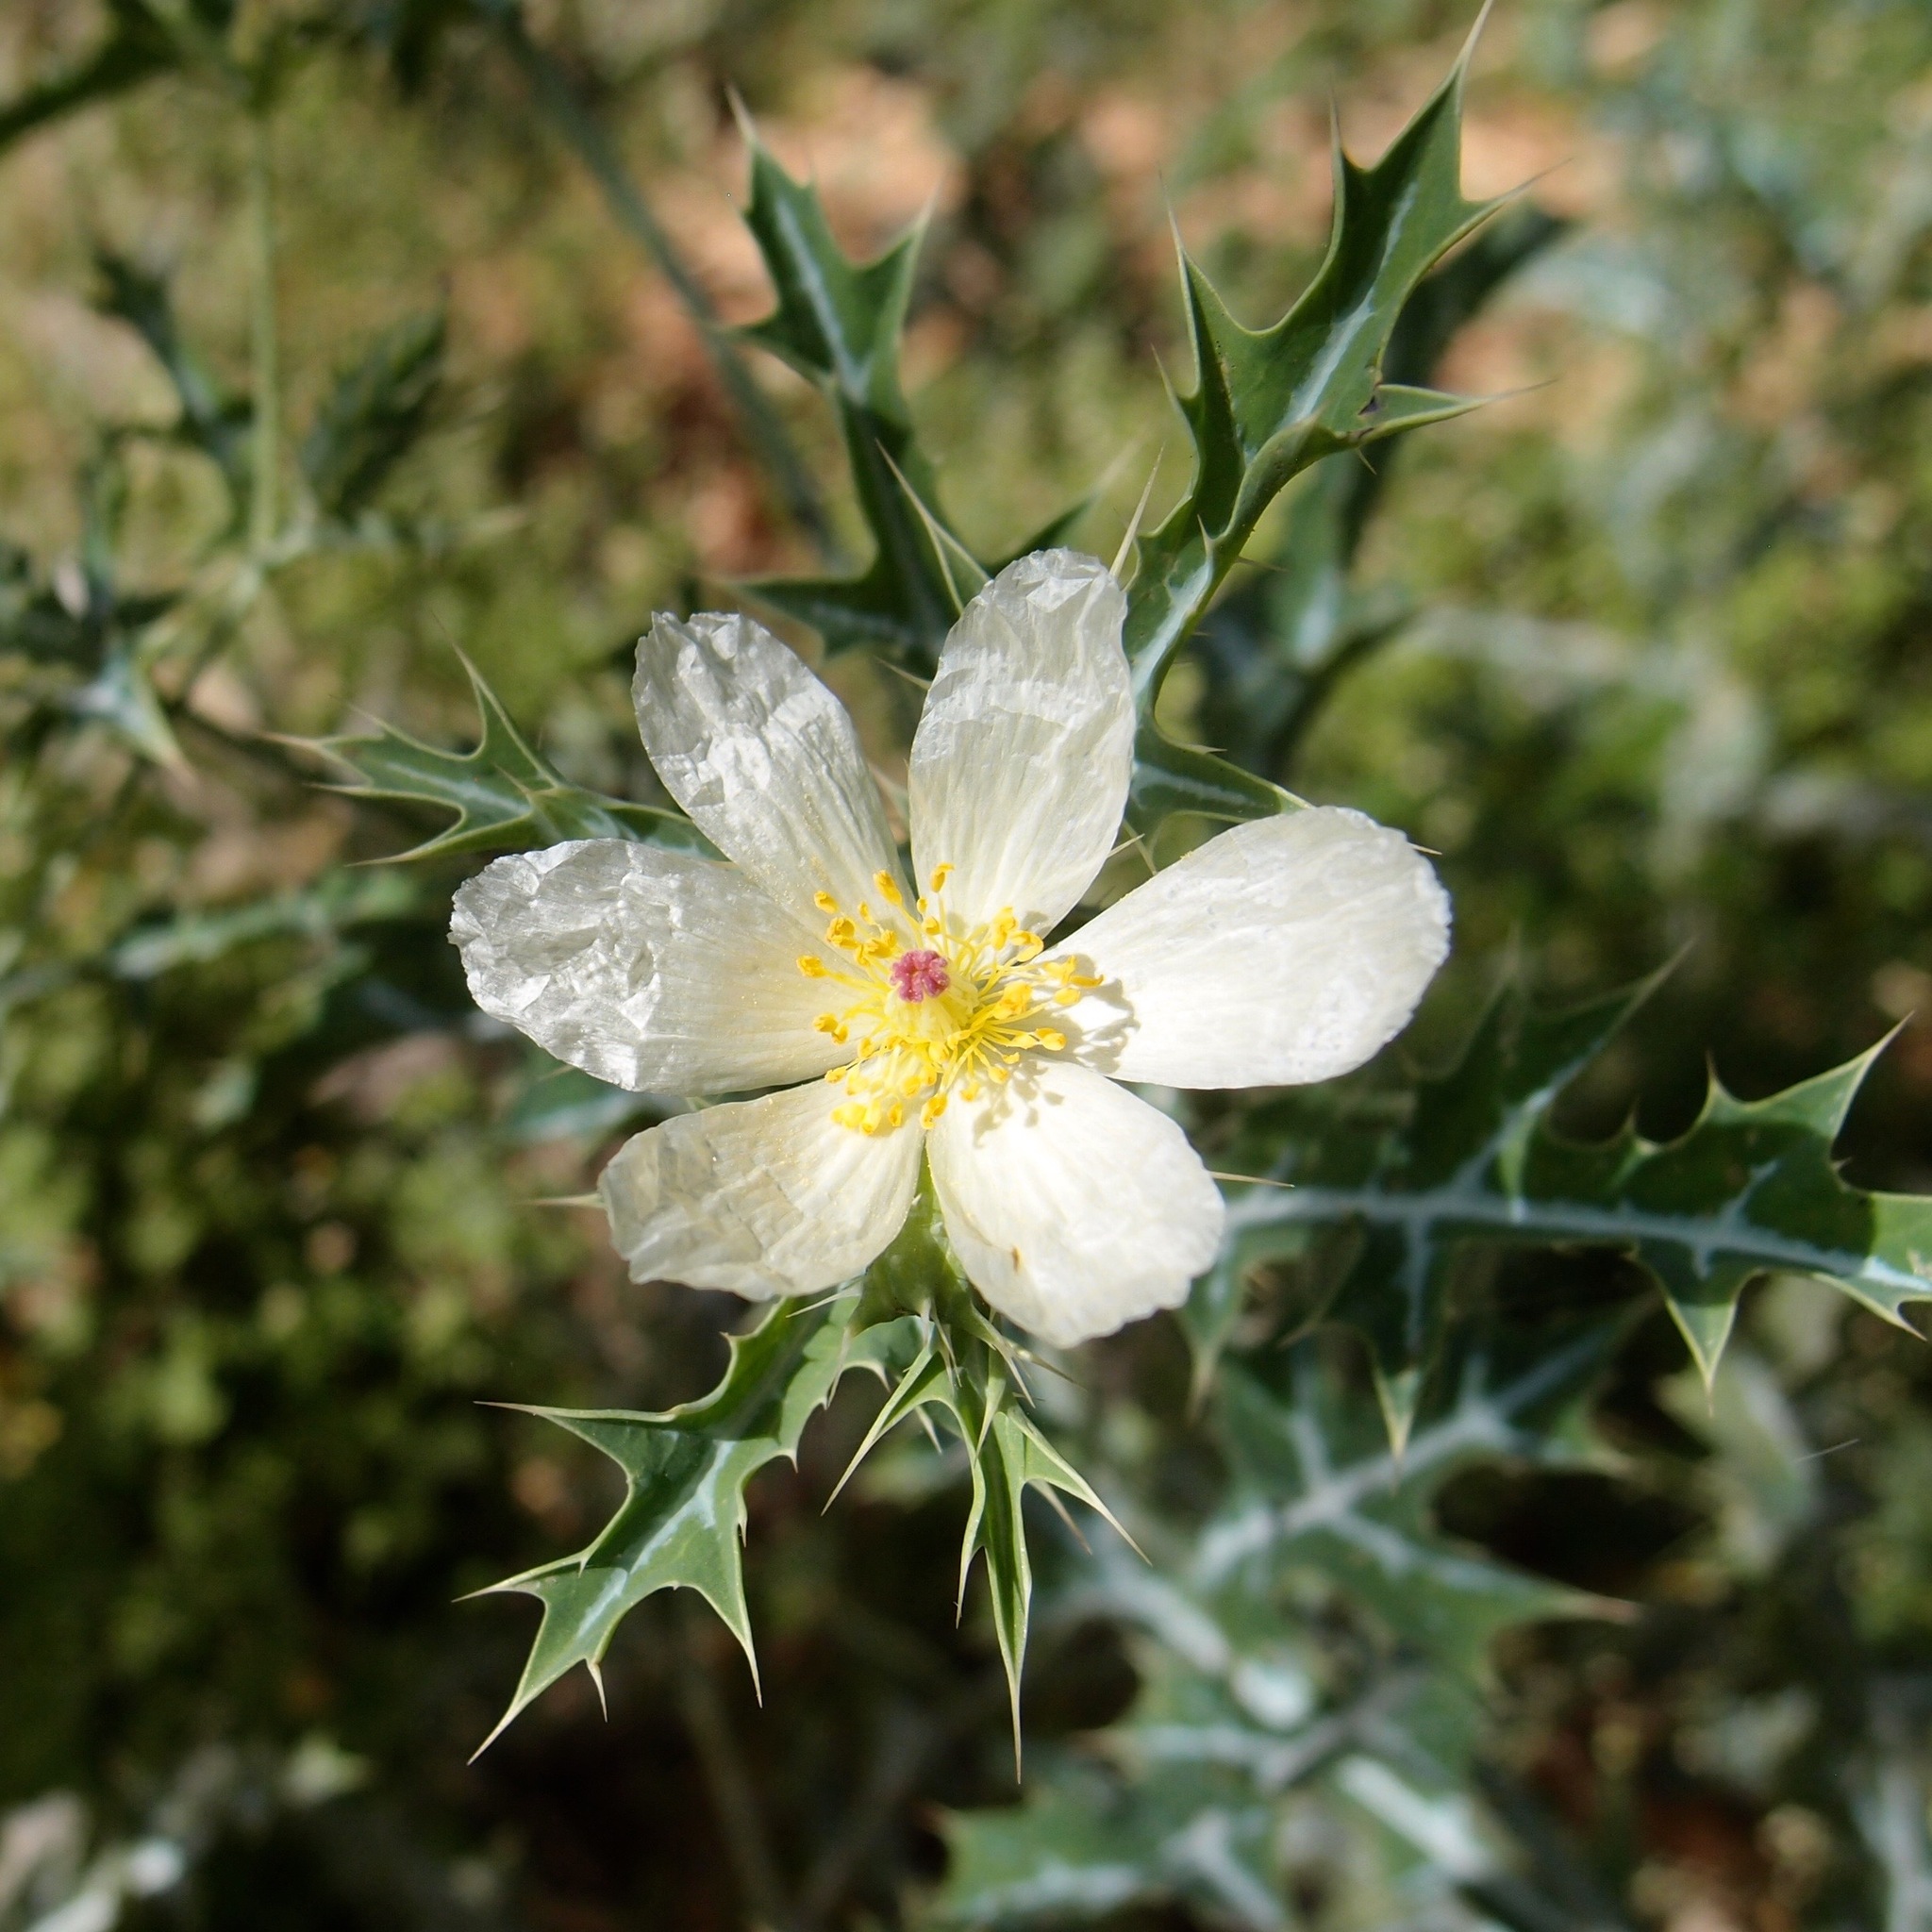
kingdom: Plantae
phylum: Tracheophyta
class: Magnoliopsida
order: Ranunculales
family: Papaveraceae
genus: Argemone
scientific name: Argemone ochroleuca
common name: White-flower mexican-poppy
